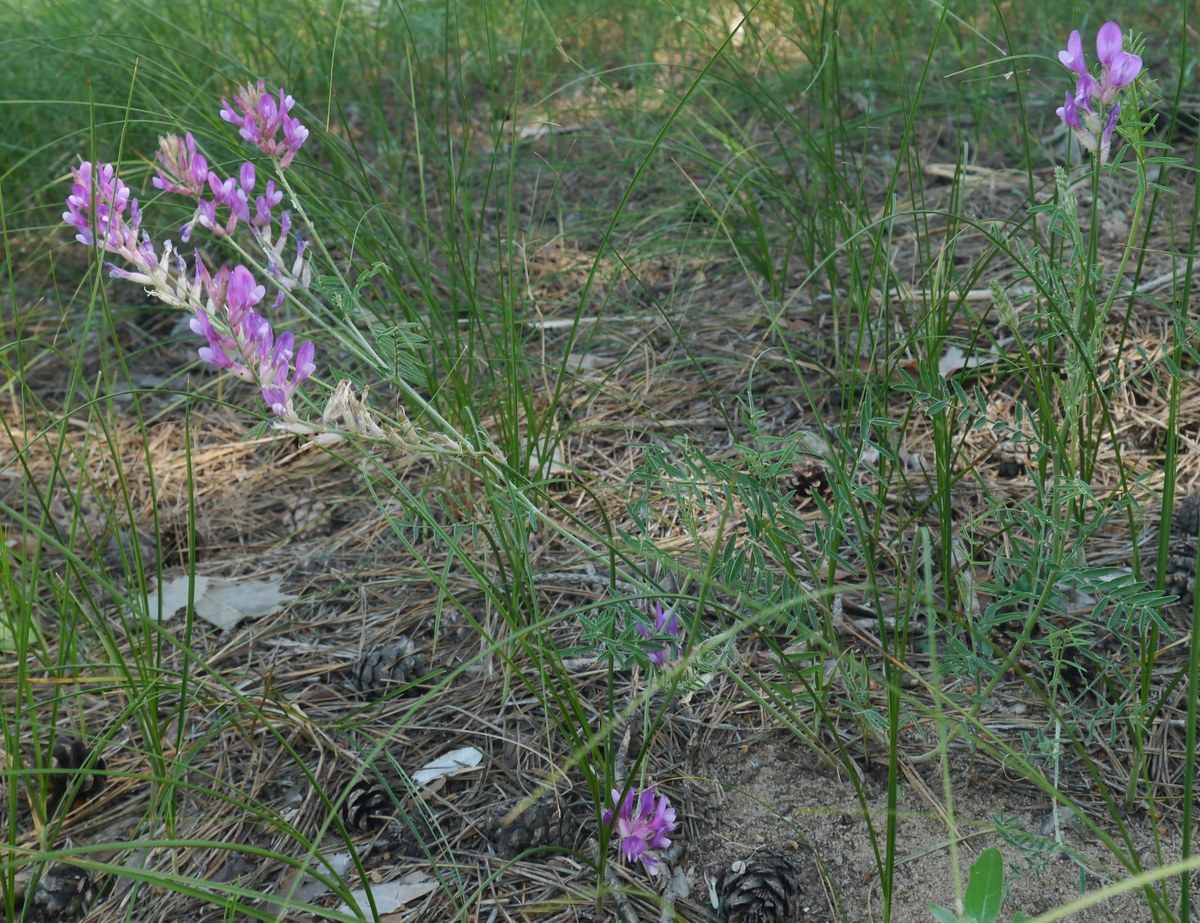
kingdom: Plantae
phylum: Tracheophyta
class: Magnoliopsida
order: Fabales
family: Fabaceae
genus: Astragalus
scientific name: Astragalus varius
